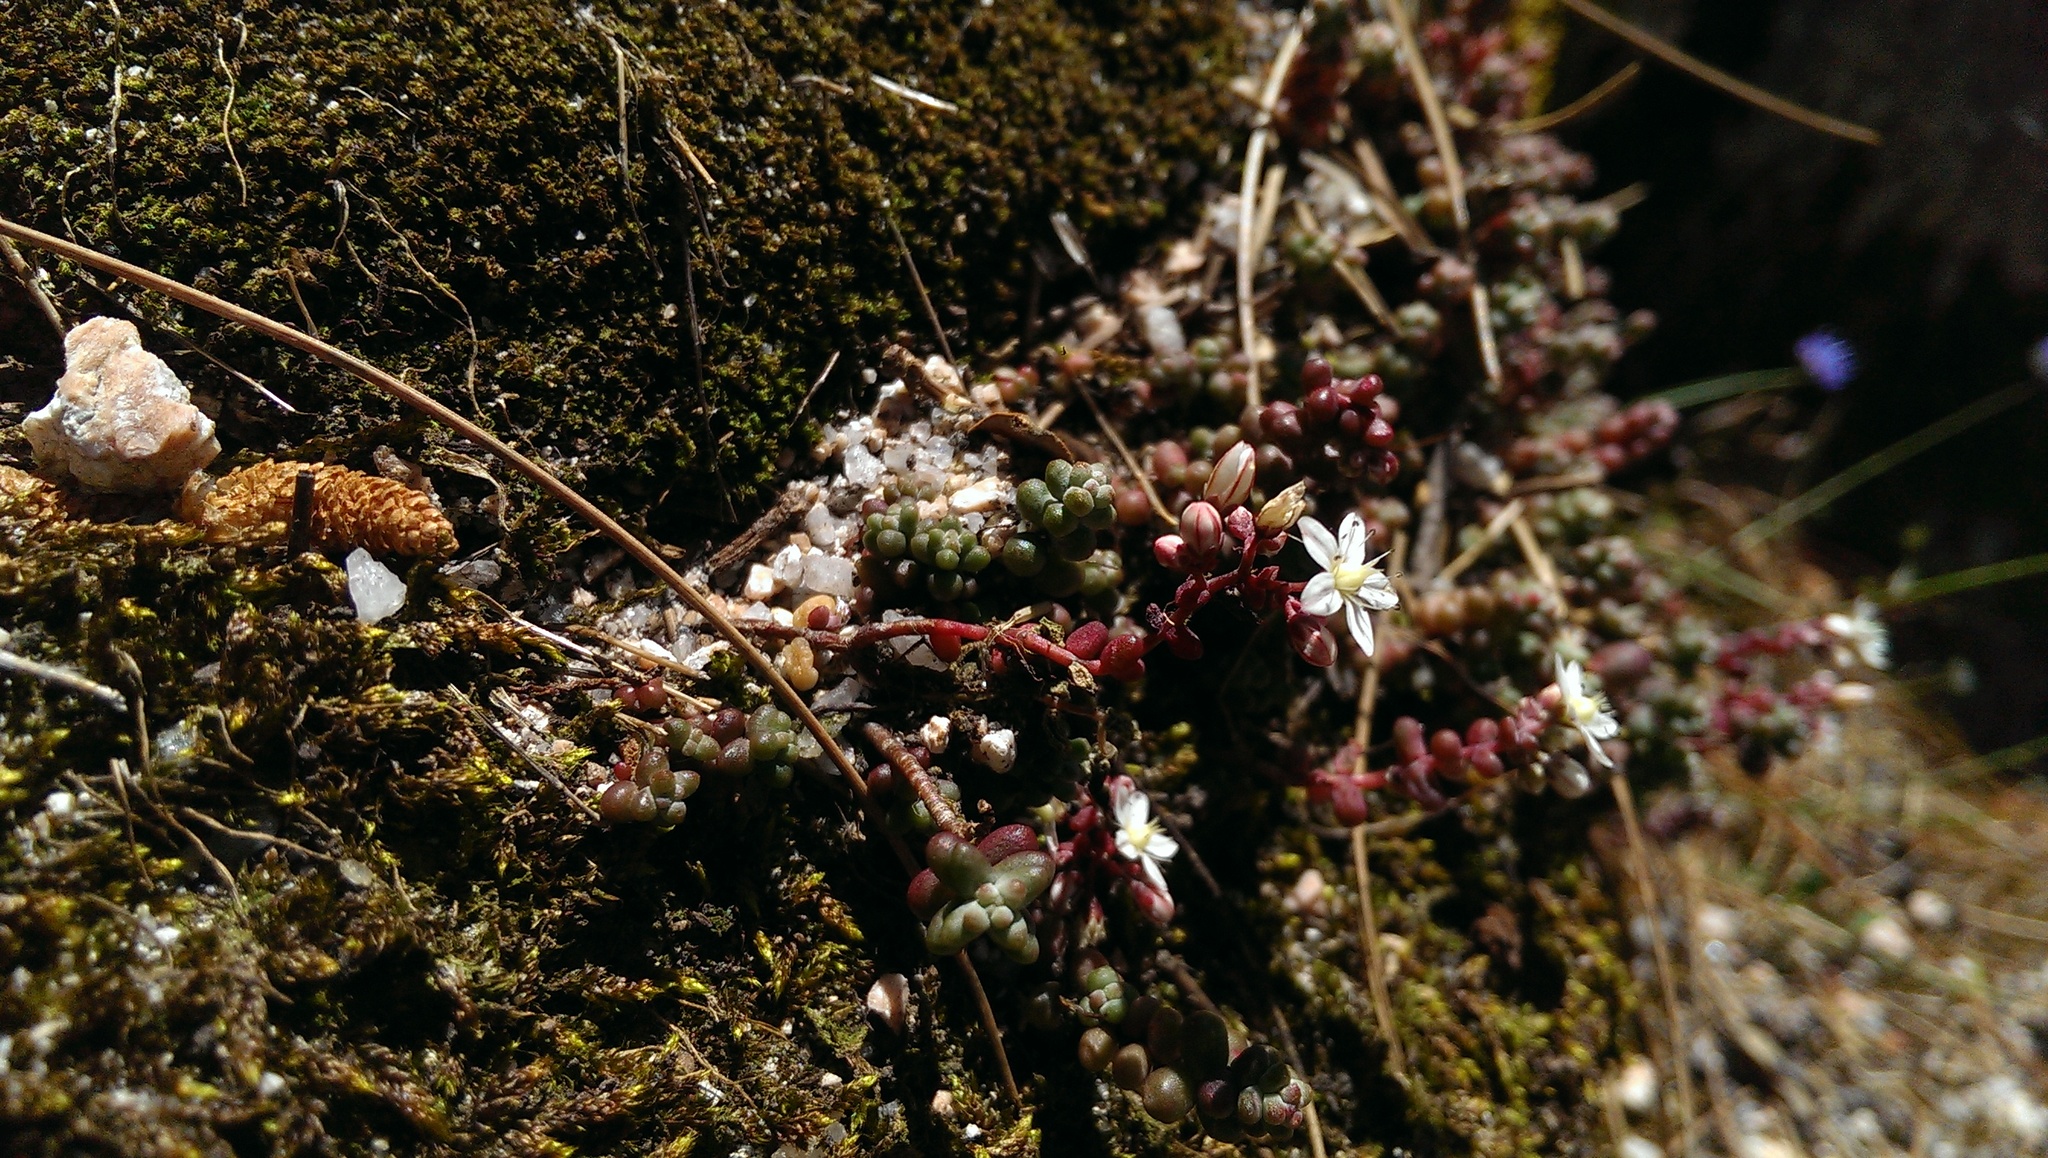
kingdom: Plantae
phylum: Tracheophyta
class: Magnoliopsida
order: Saxifragales
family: Crassulaceae
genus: Sedum
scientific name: Sedum brevifolium
